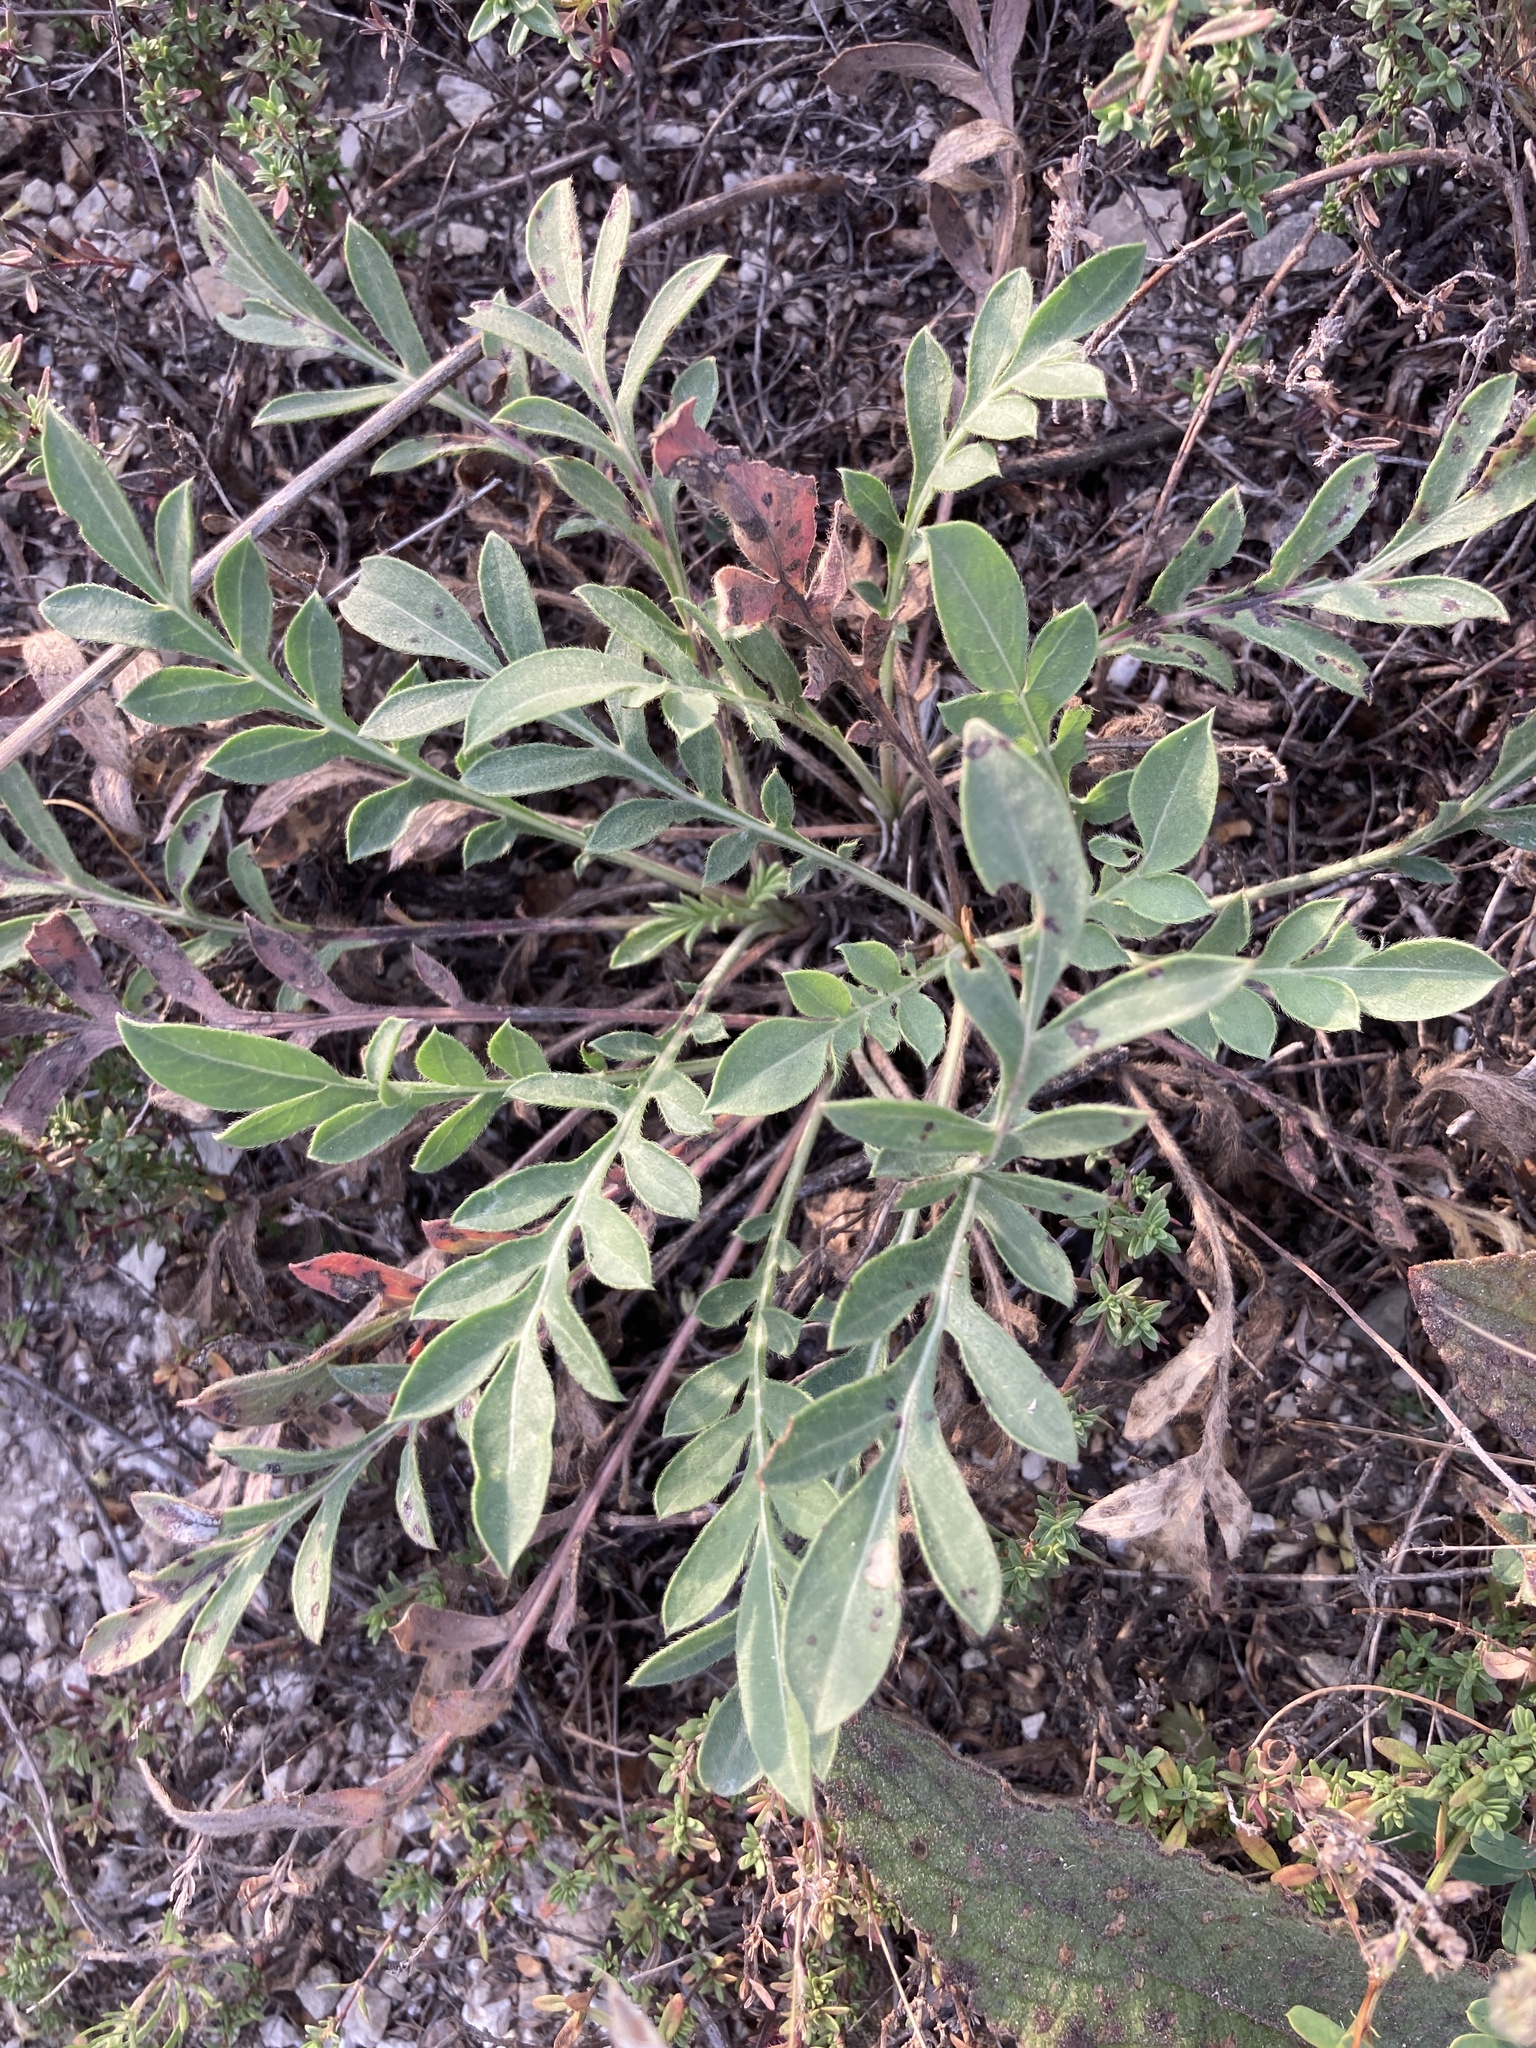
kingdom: Plantae
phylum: Tracheophyta
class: Magnoliopsida
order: Asterales
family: Asteraceae
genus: Psephellus
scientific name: Psephellus marschallianus
